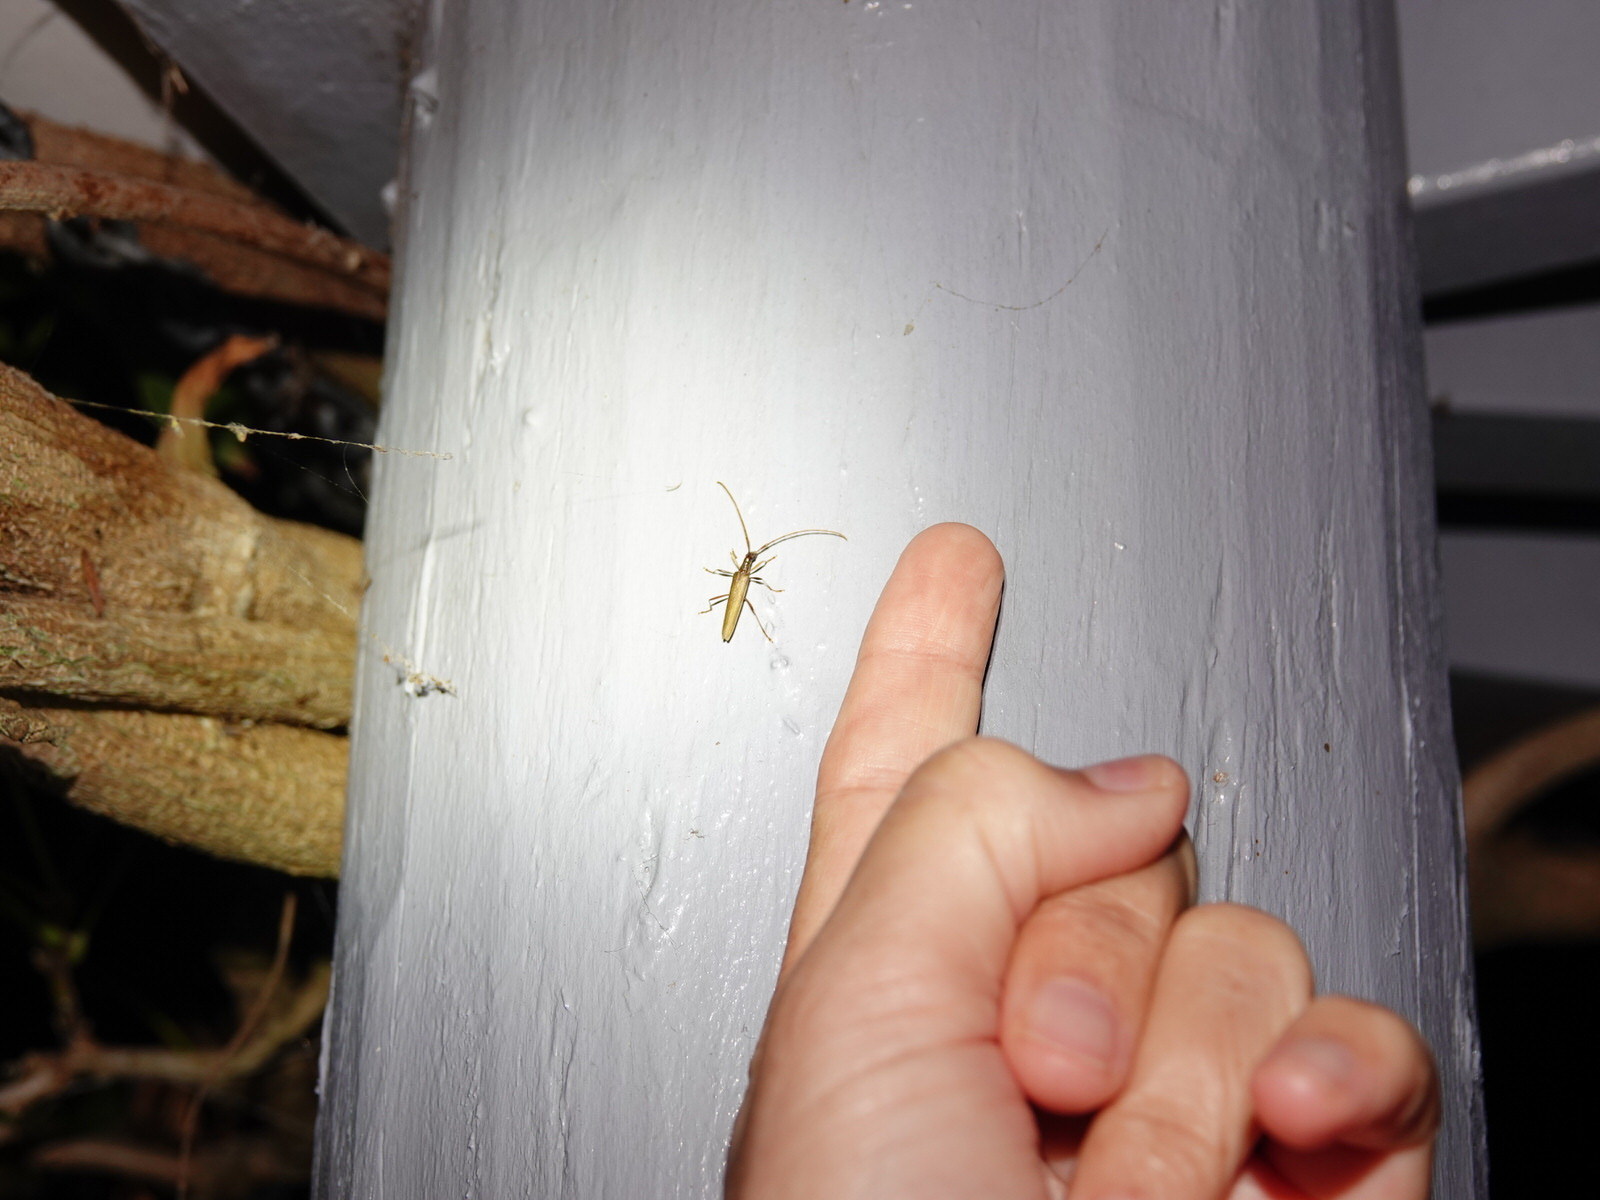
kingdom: Animalia
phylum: Arthropoda
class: Insecta
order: Coleoptera
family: Cerambycidae
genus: Stenopotes
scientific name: Stenopotes pallidus
